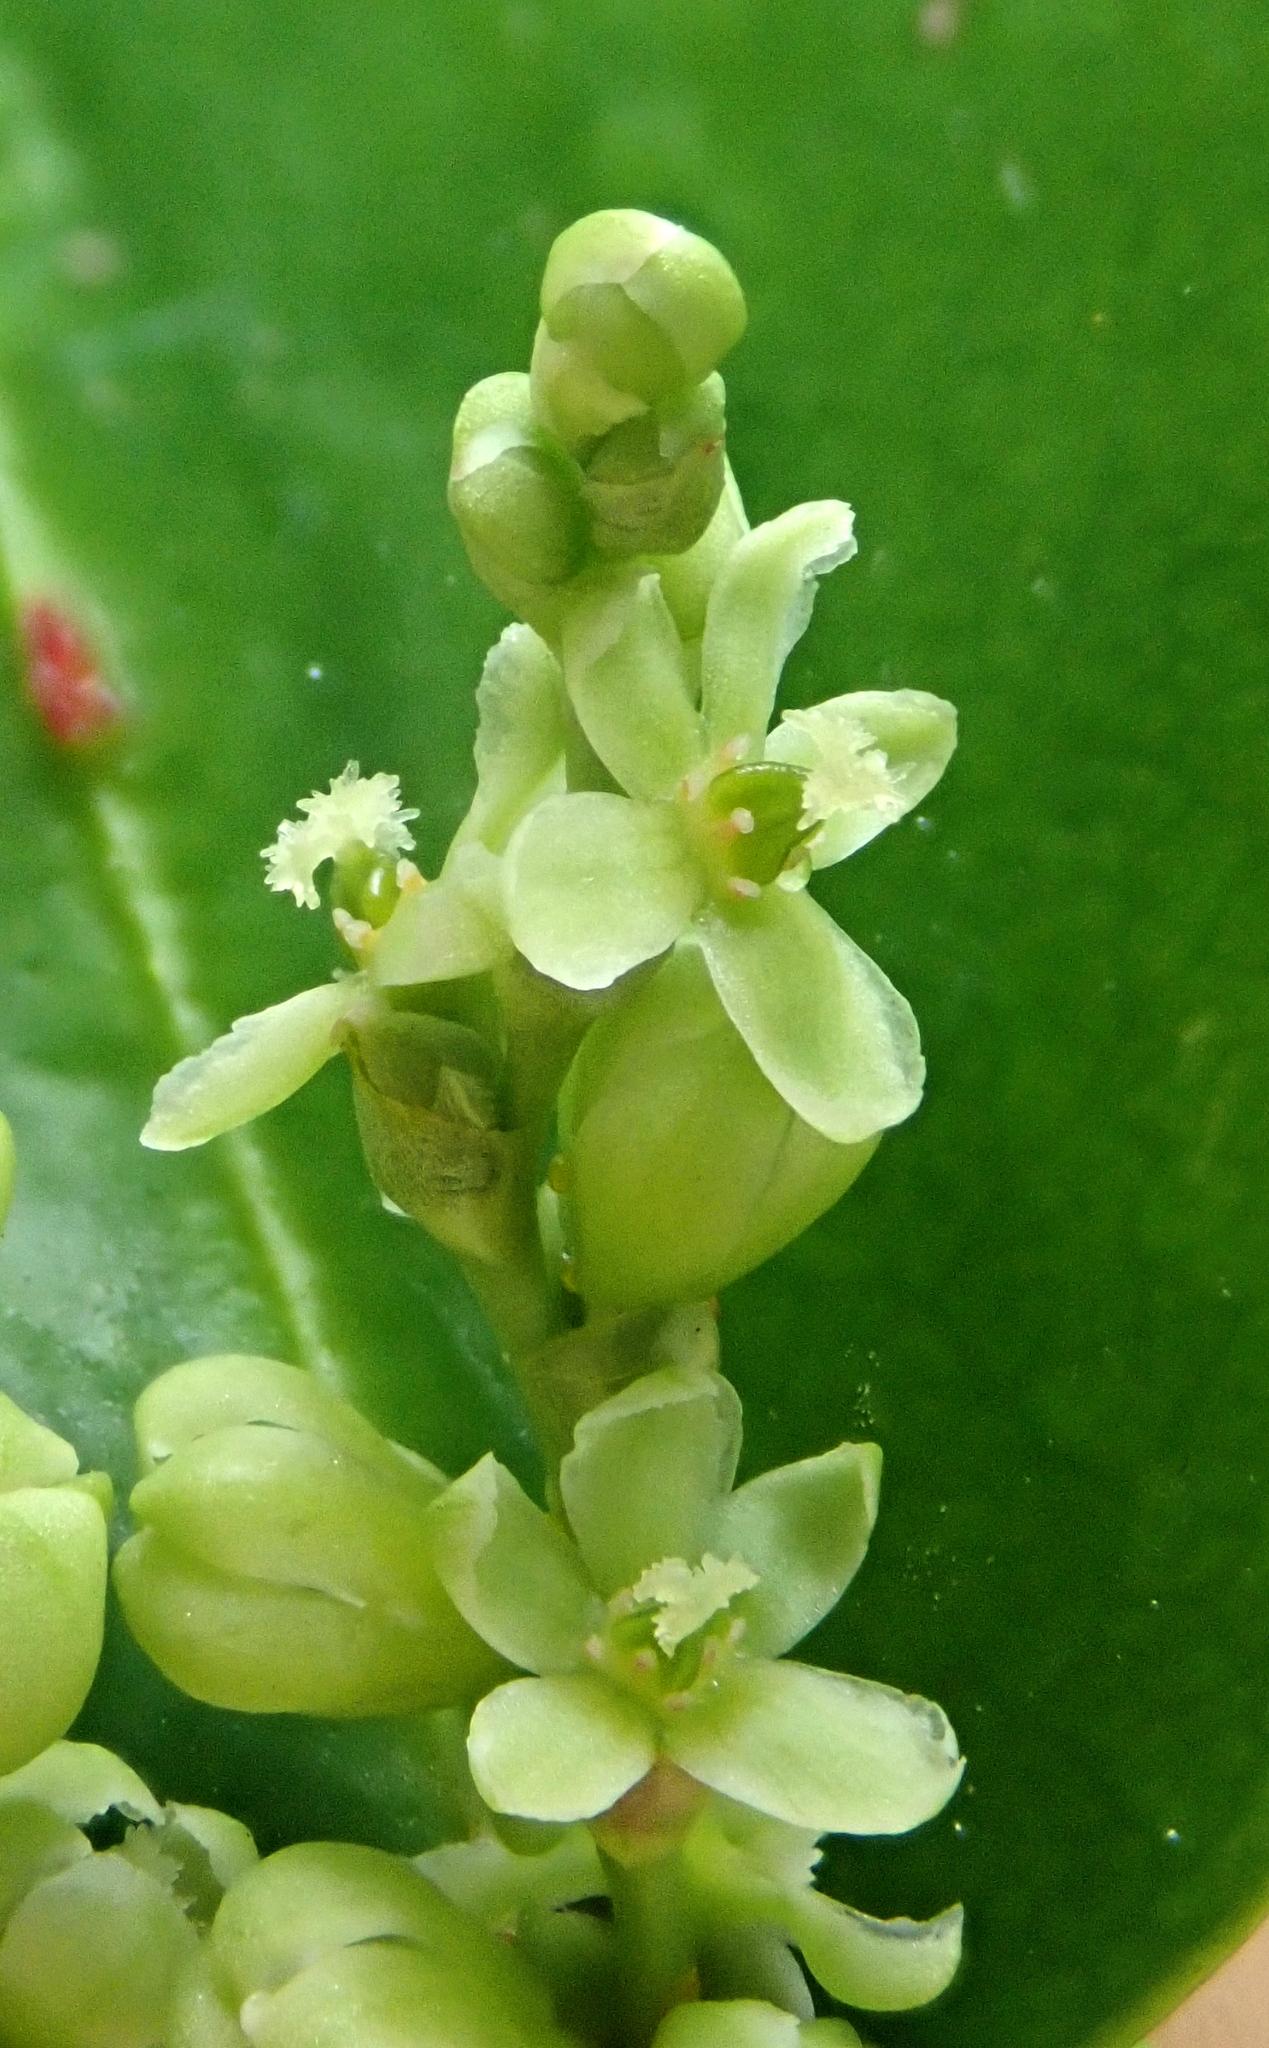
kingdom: Plantae
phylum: Tracheophyta
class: Magnoliopsida
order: Caryophyllales
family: Polygonaceae
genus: Muehlenbeckia
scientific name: Muehlenbeckia australis
